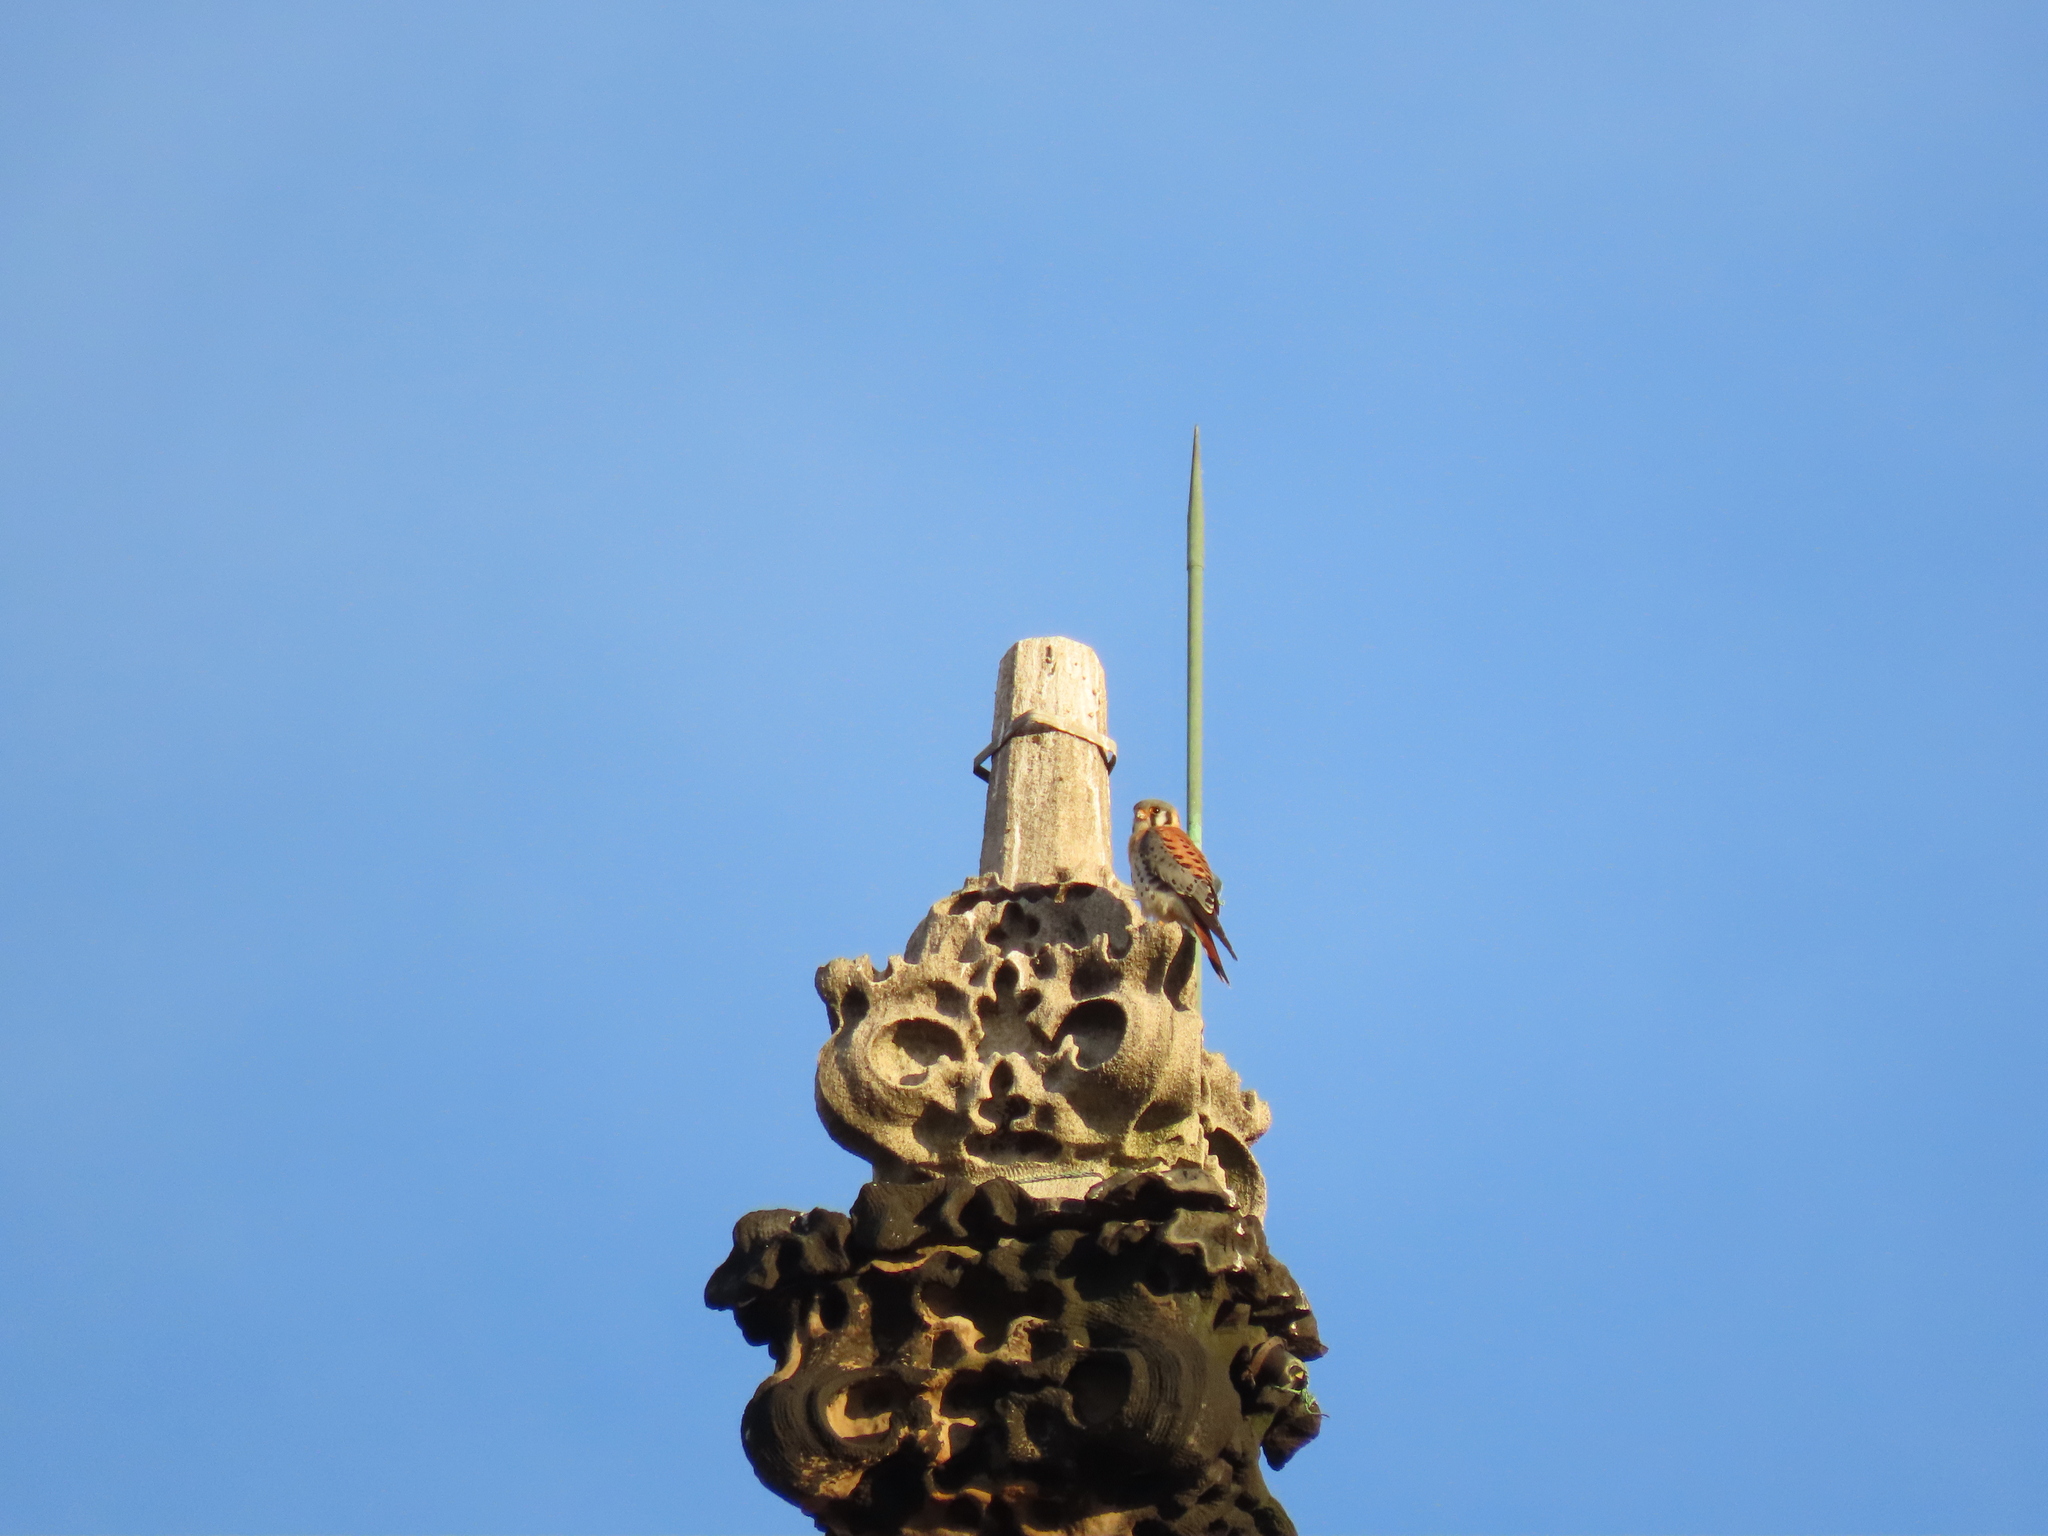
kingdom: Animalia
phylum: Chordata
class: Aves
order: Falconiformes
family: Falconidae
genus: Falco
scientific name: Falco sparverius
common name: American kestrel
